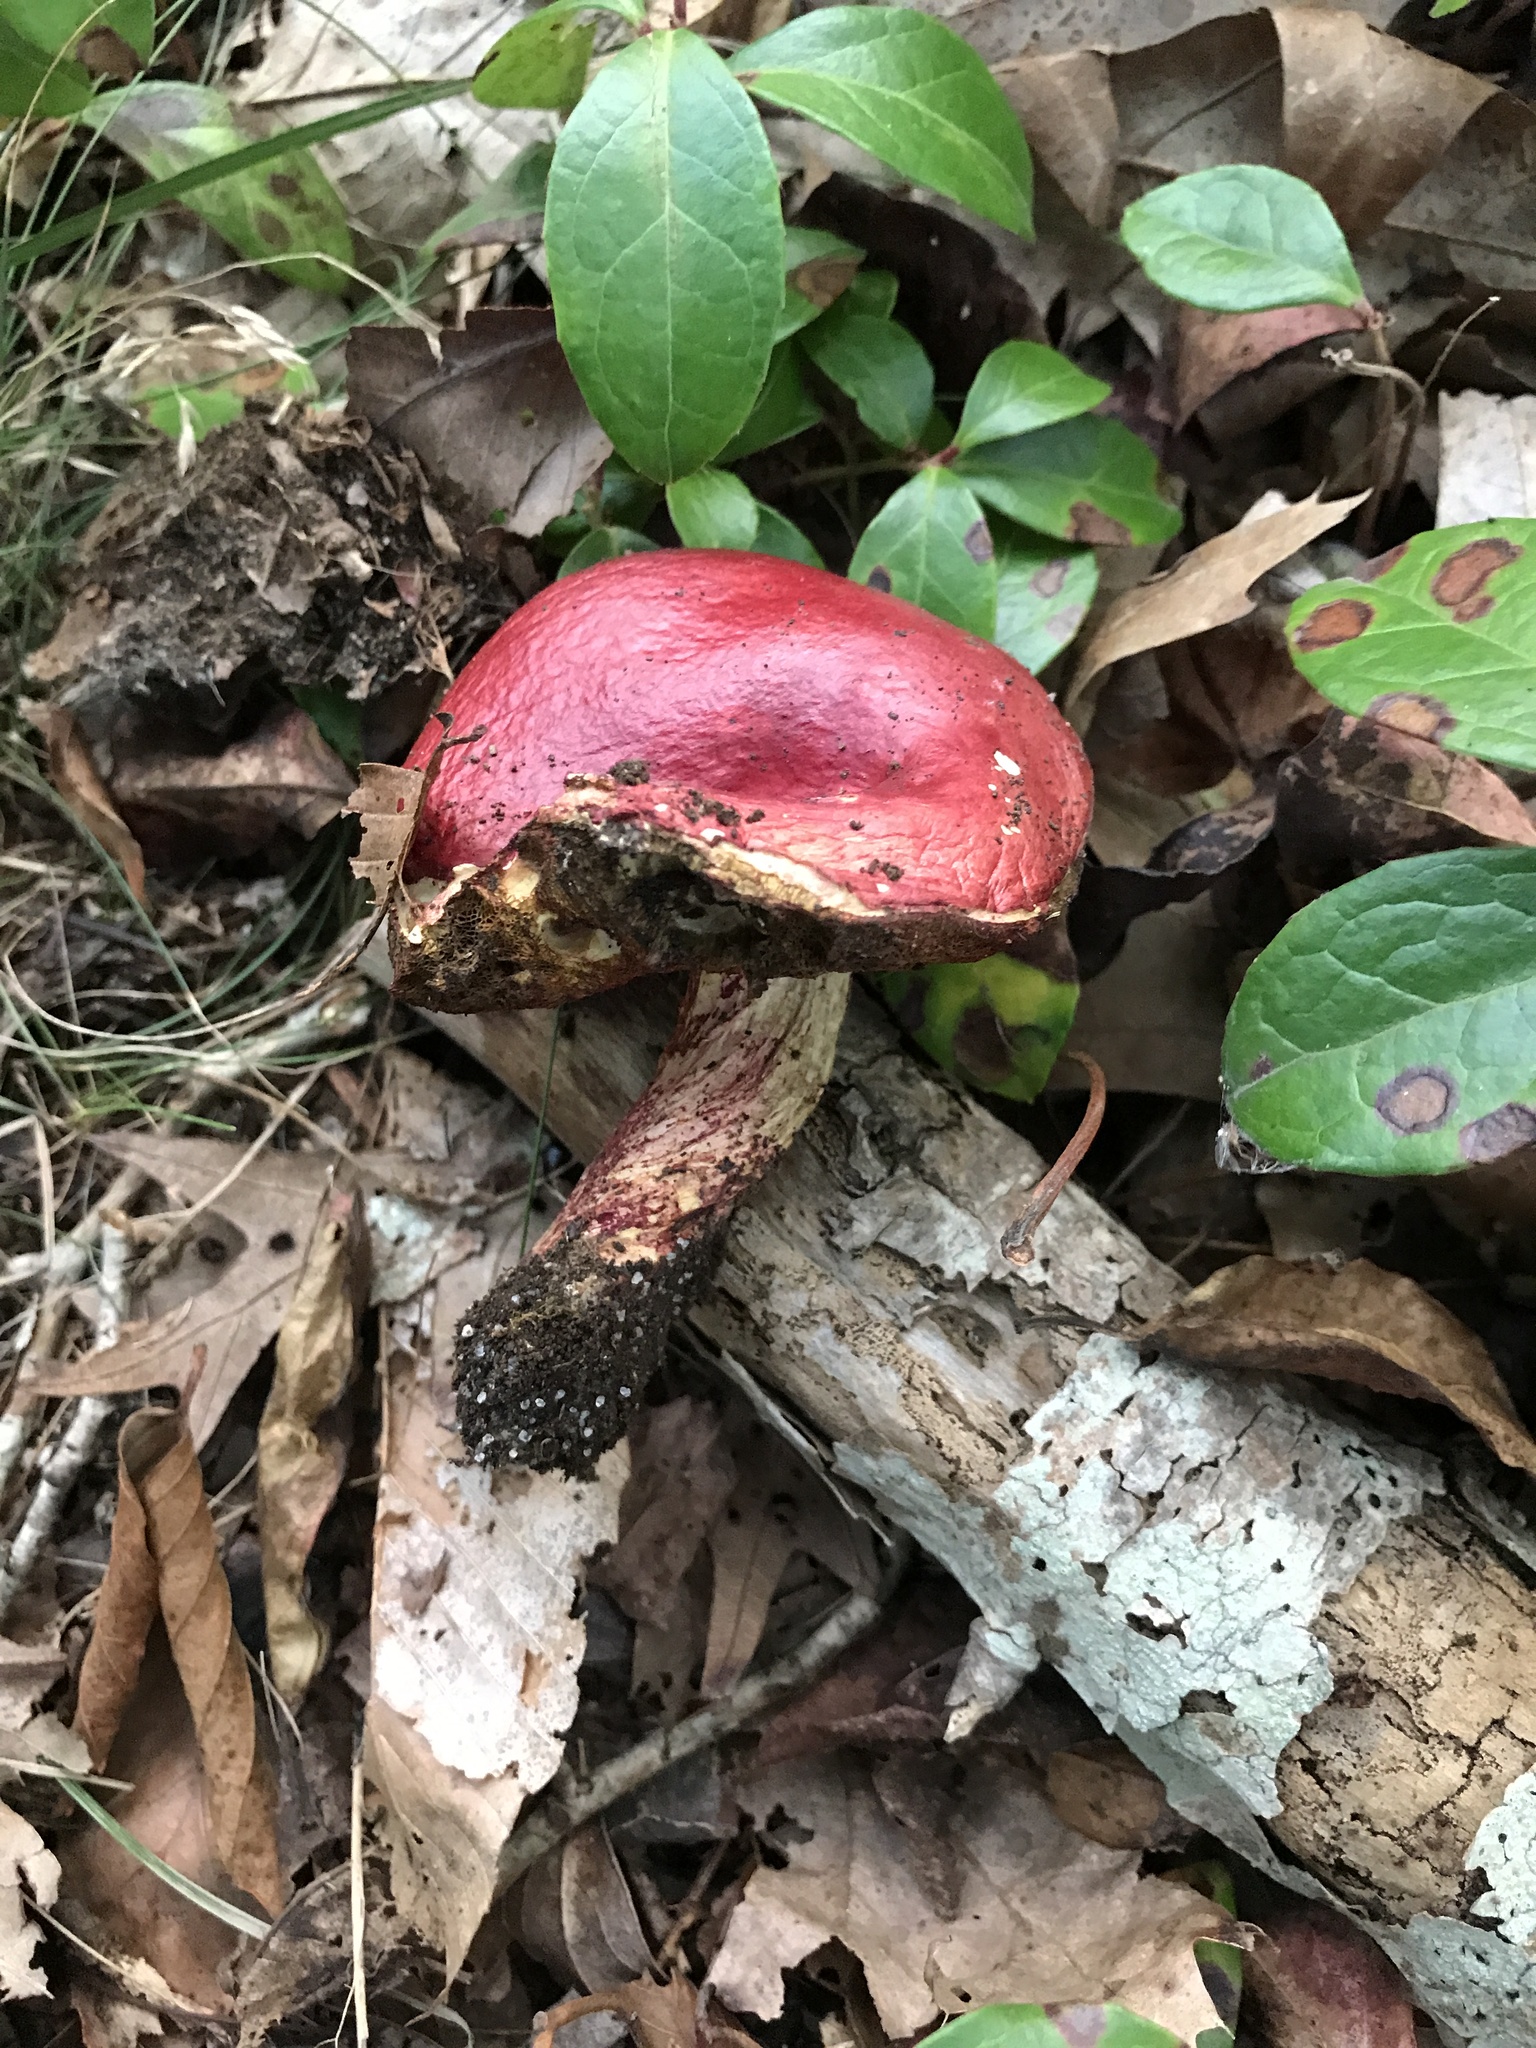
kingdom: Fungi
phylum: Basidiomycota
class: Agaricomycetes
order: Boletales
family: Boletaceae
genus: Butyriboletus
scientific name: Butyriboletus frostii
